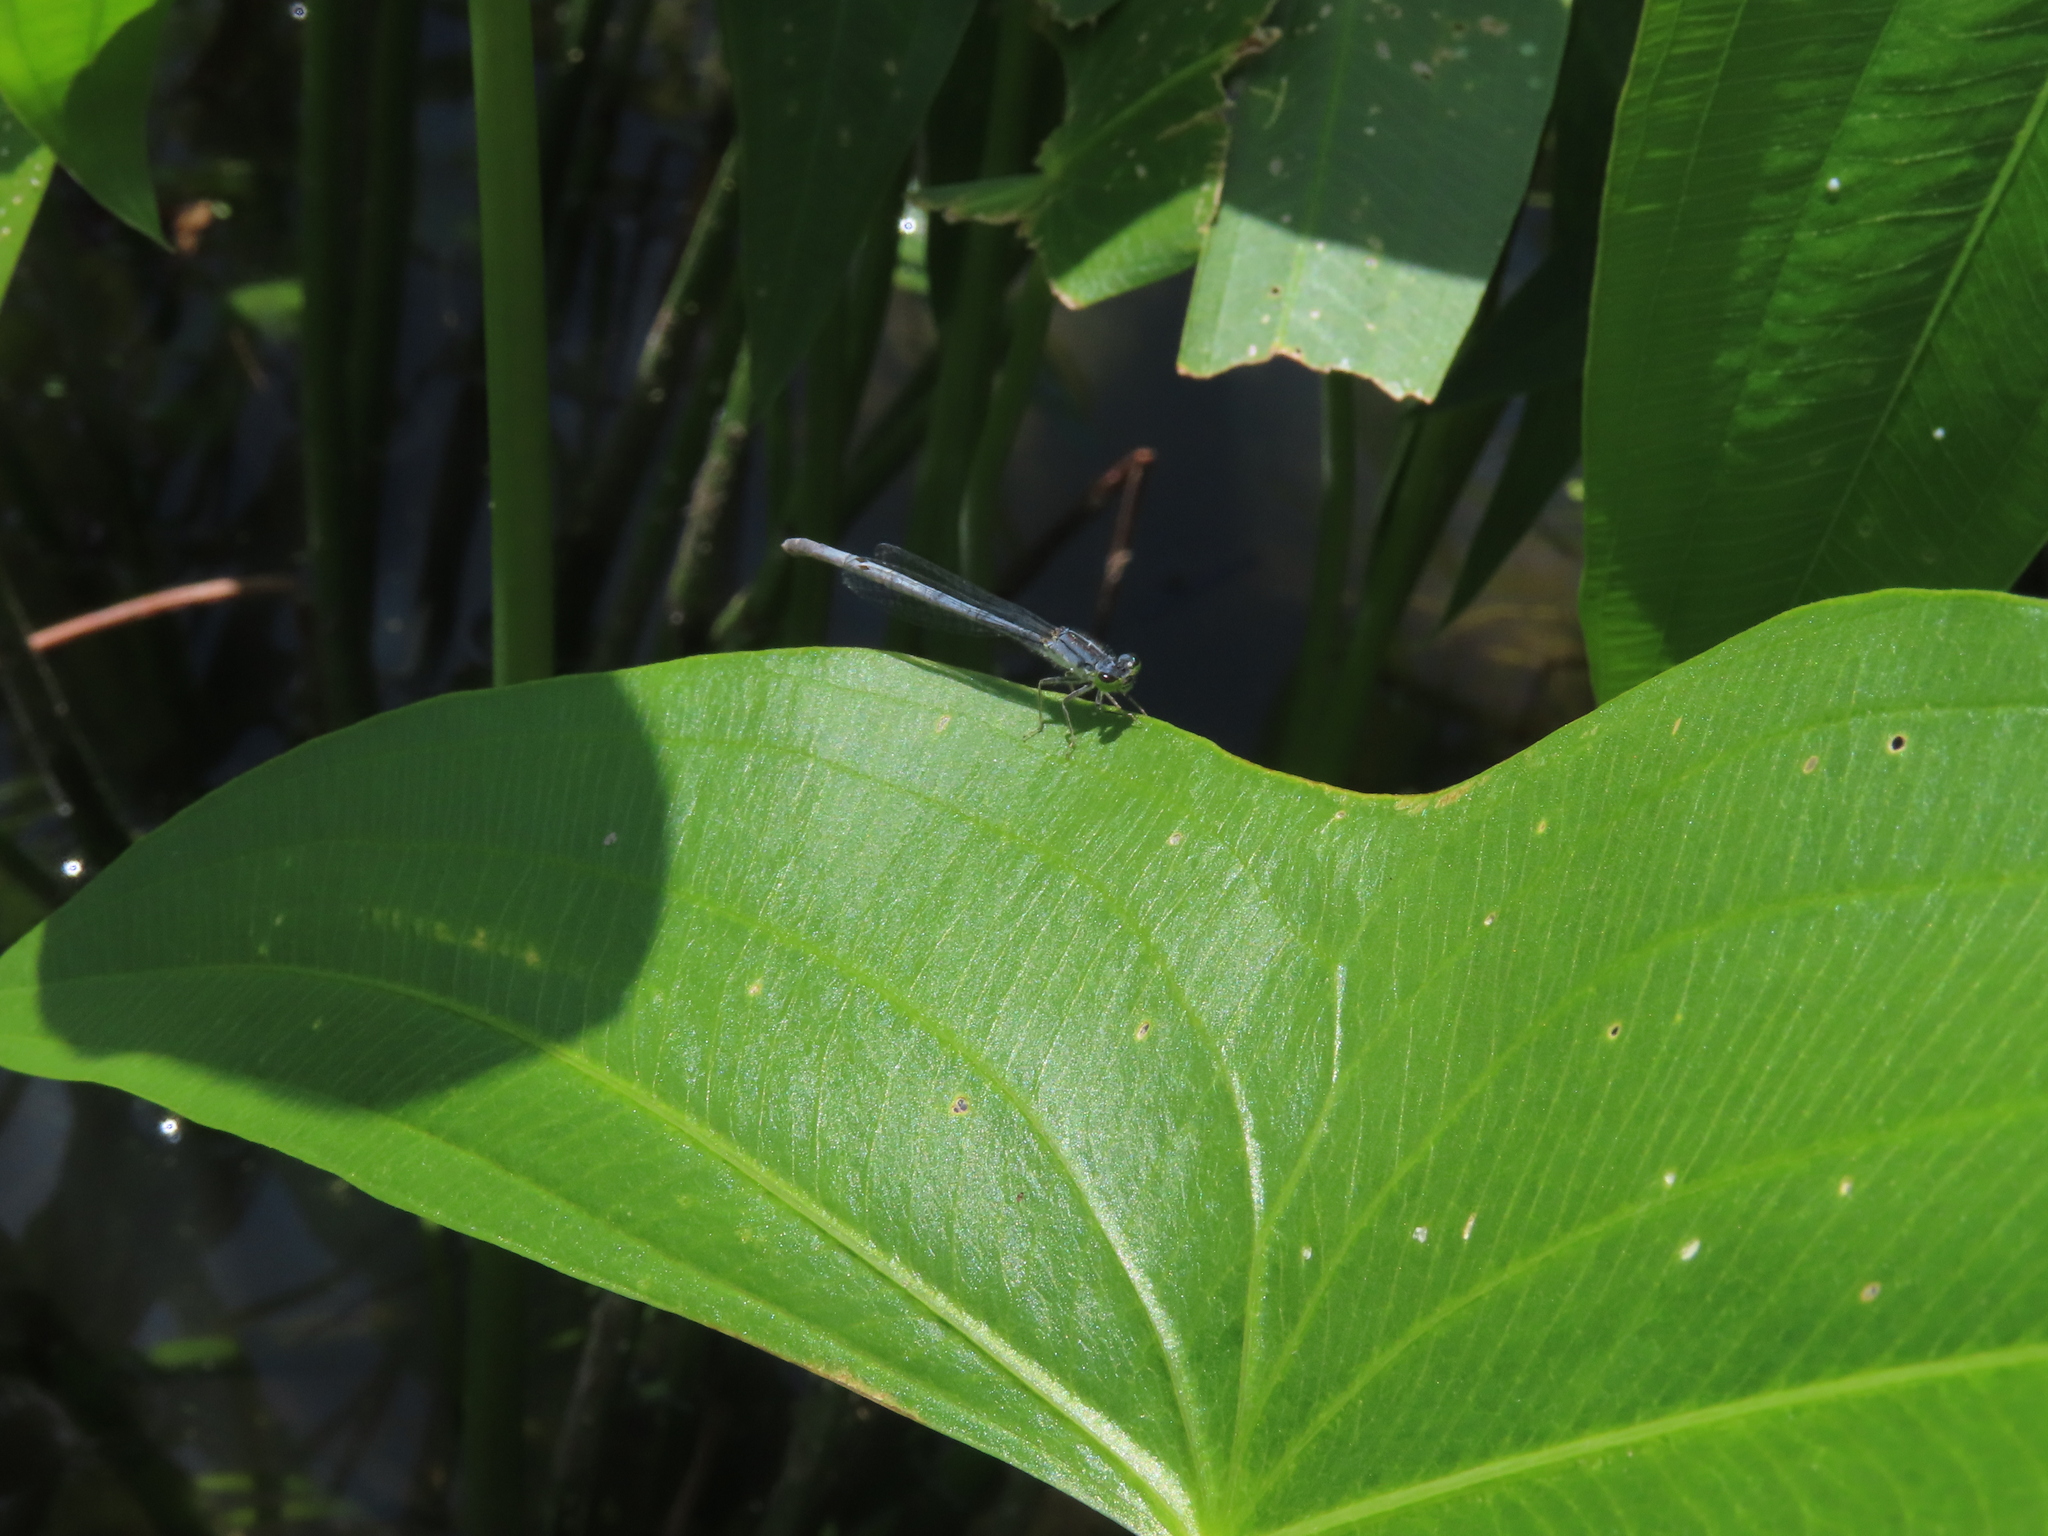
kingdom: Animalia
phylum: Arthropoda
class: Insecta
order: Odonata
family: Coenagrionidae
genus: Ischnura
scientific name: Ischnura verticalis
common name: Eastern forktail
